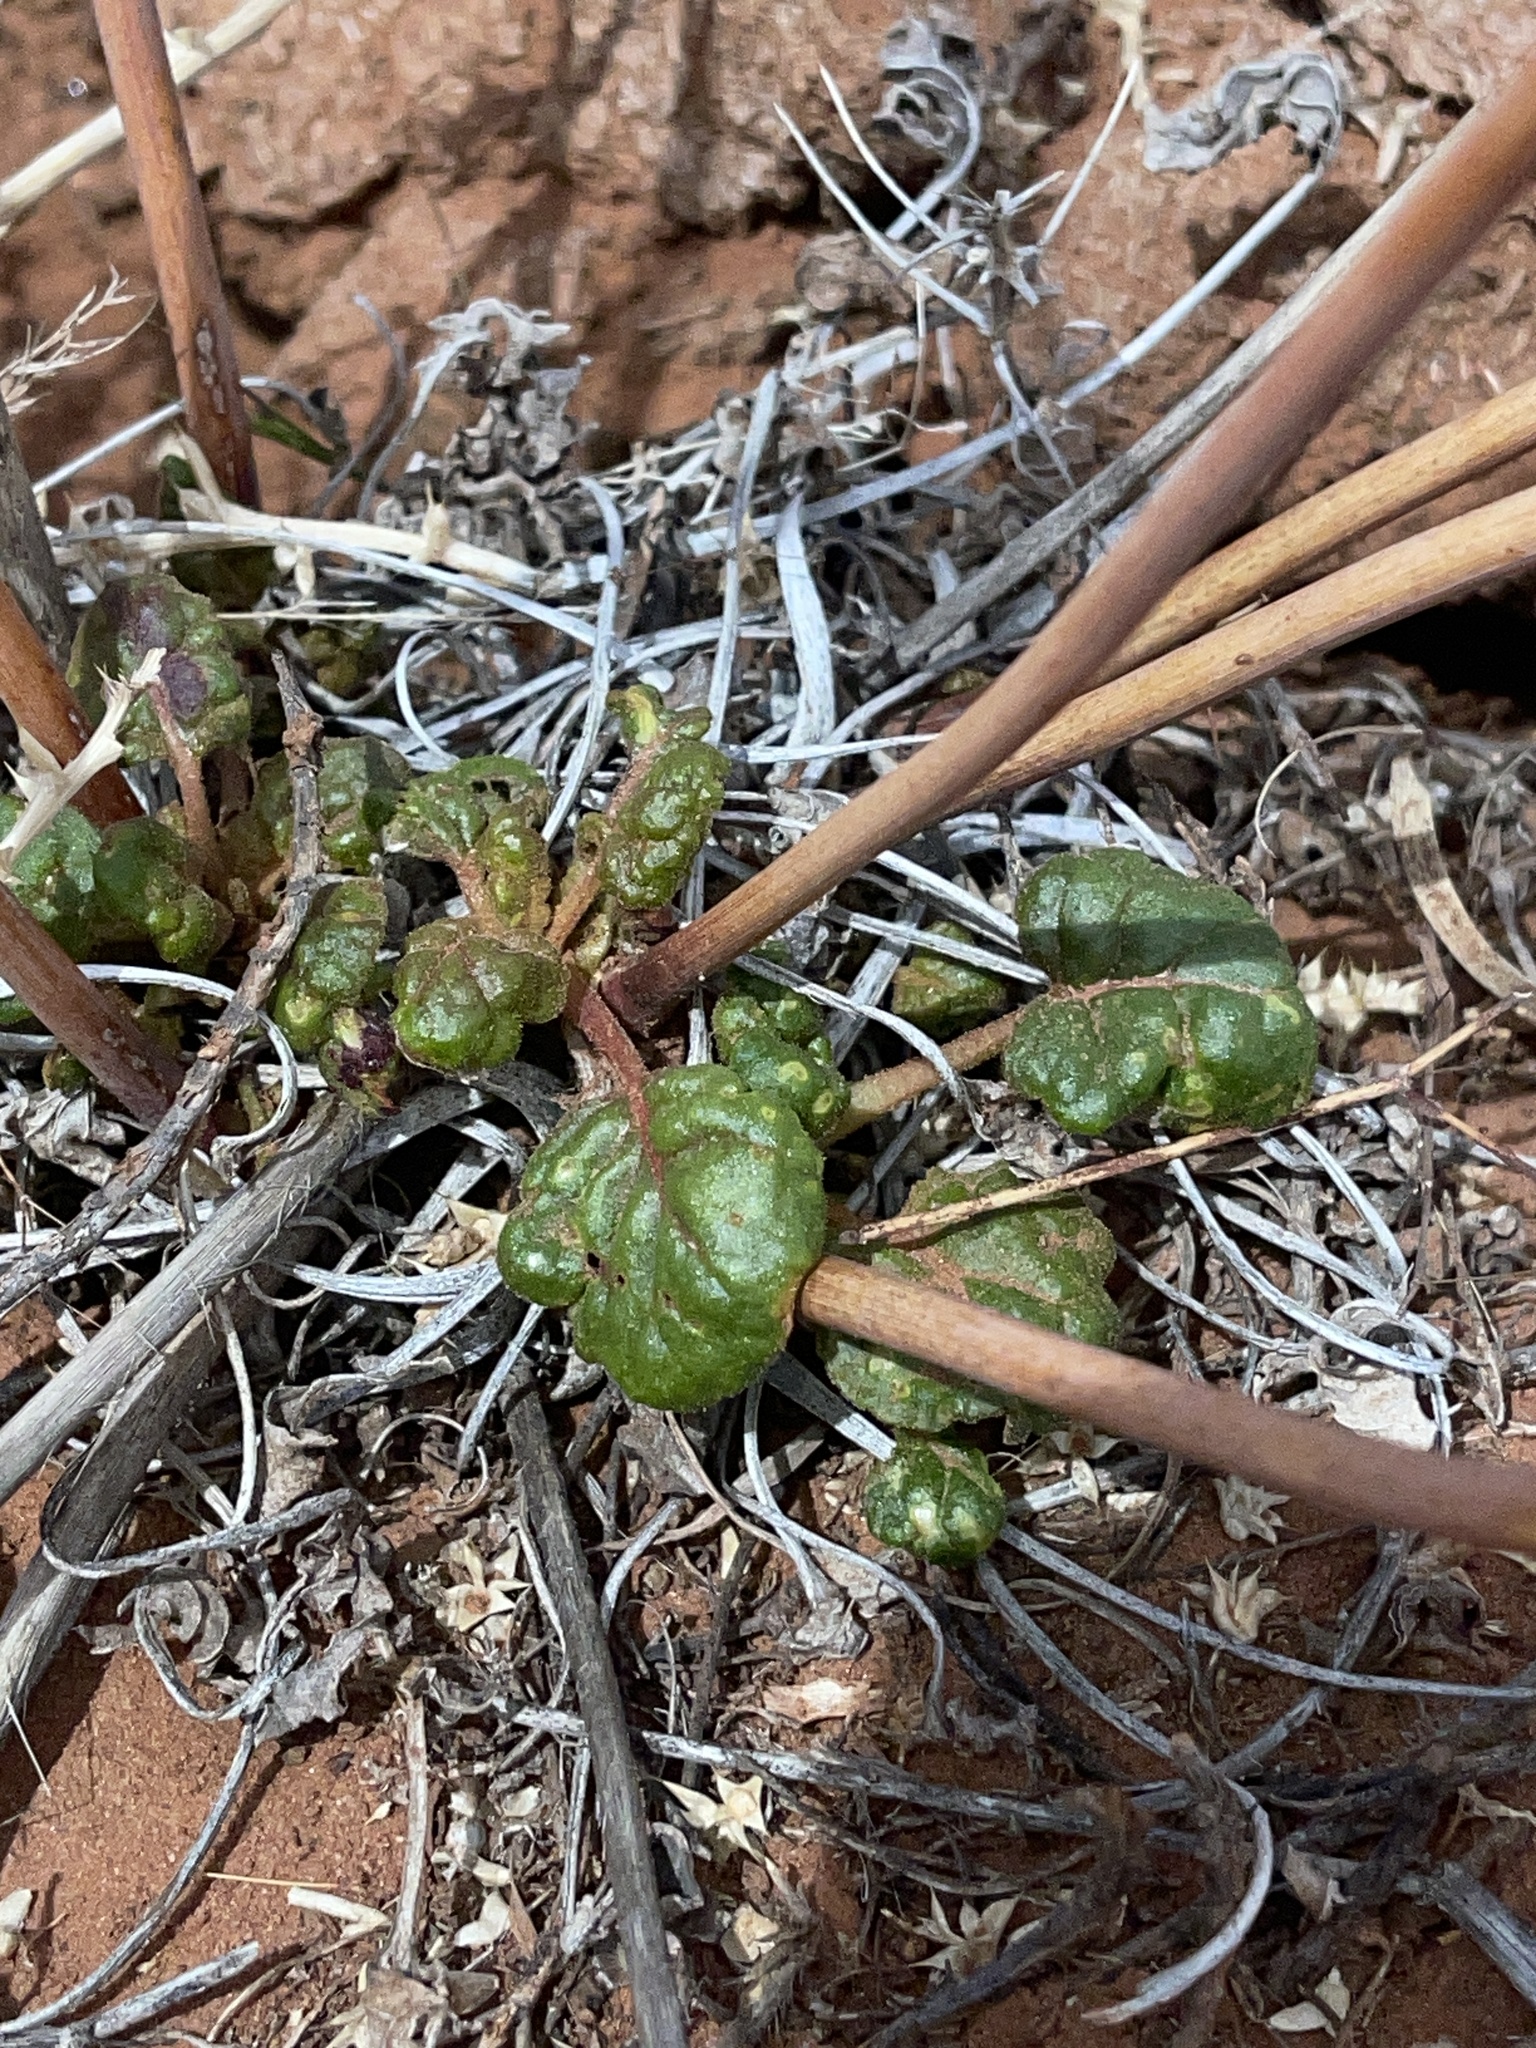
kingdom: Plantae
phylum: Tracheophyta
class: Magnoliopsida
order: Caryophyllales
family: Polygonaceae
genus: Eriogonum
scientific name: Eriogonum inflatum
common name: Desert trumpet
